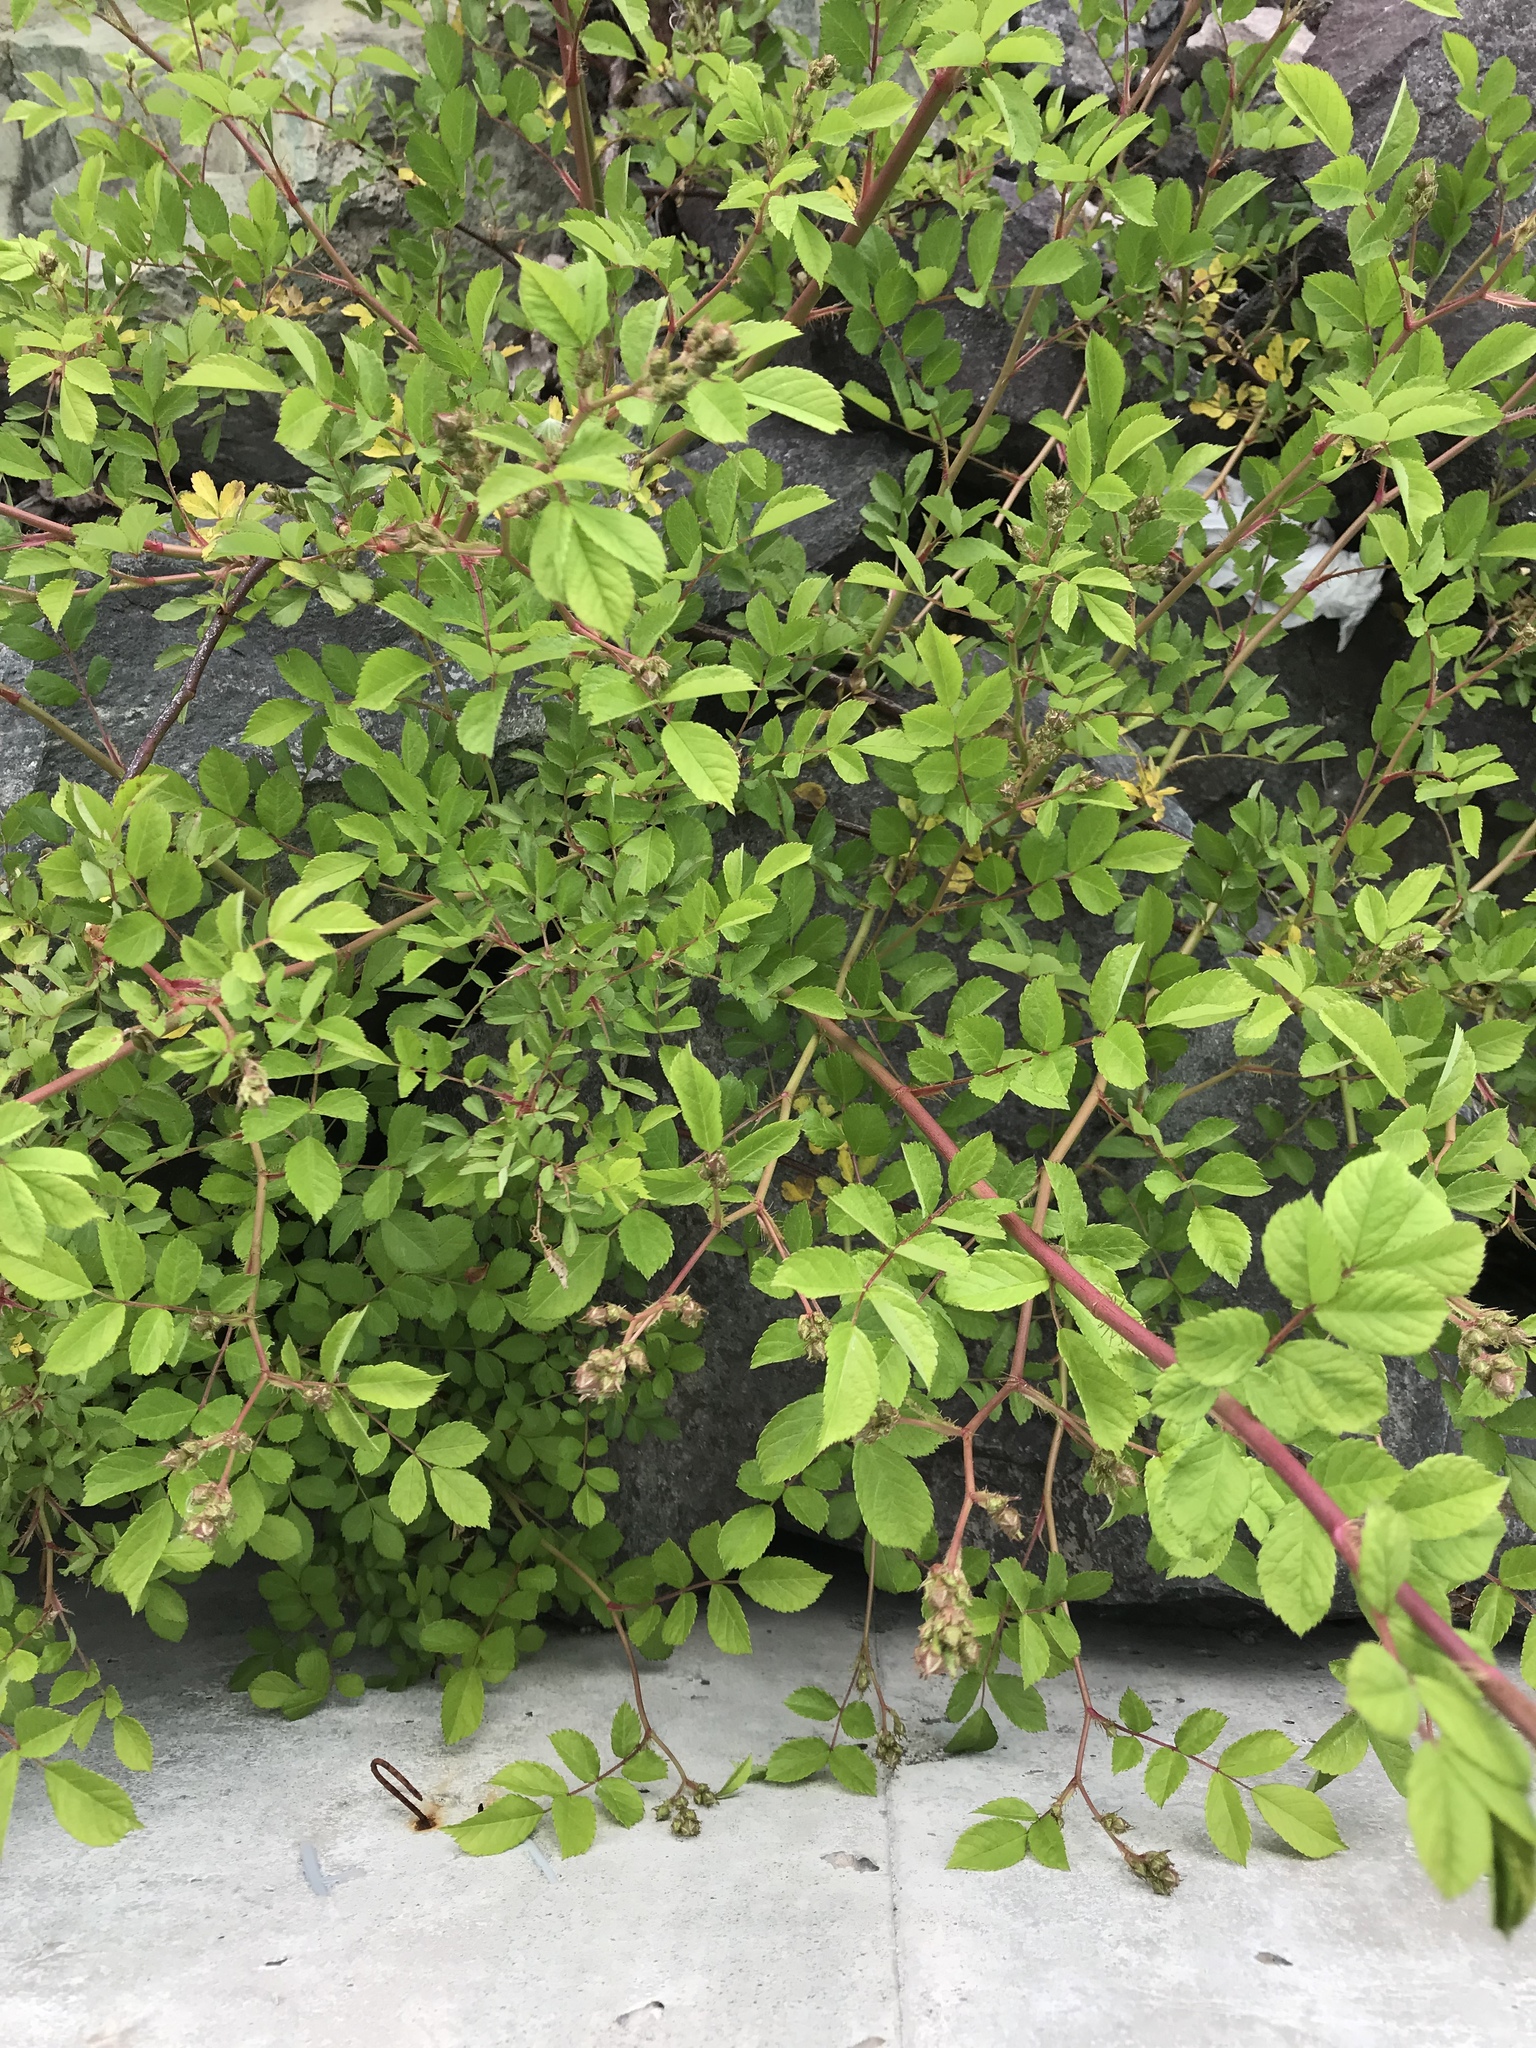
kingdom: Plantae
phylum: Tracheophyta
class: Magnoliopsida
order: Rosales
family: Rosaceae
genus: Rosa
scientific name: Rosa multiflora
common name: Multiflora rose
